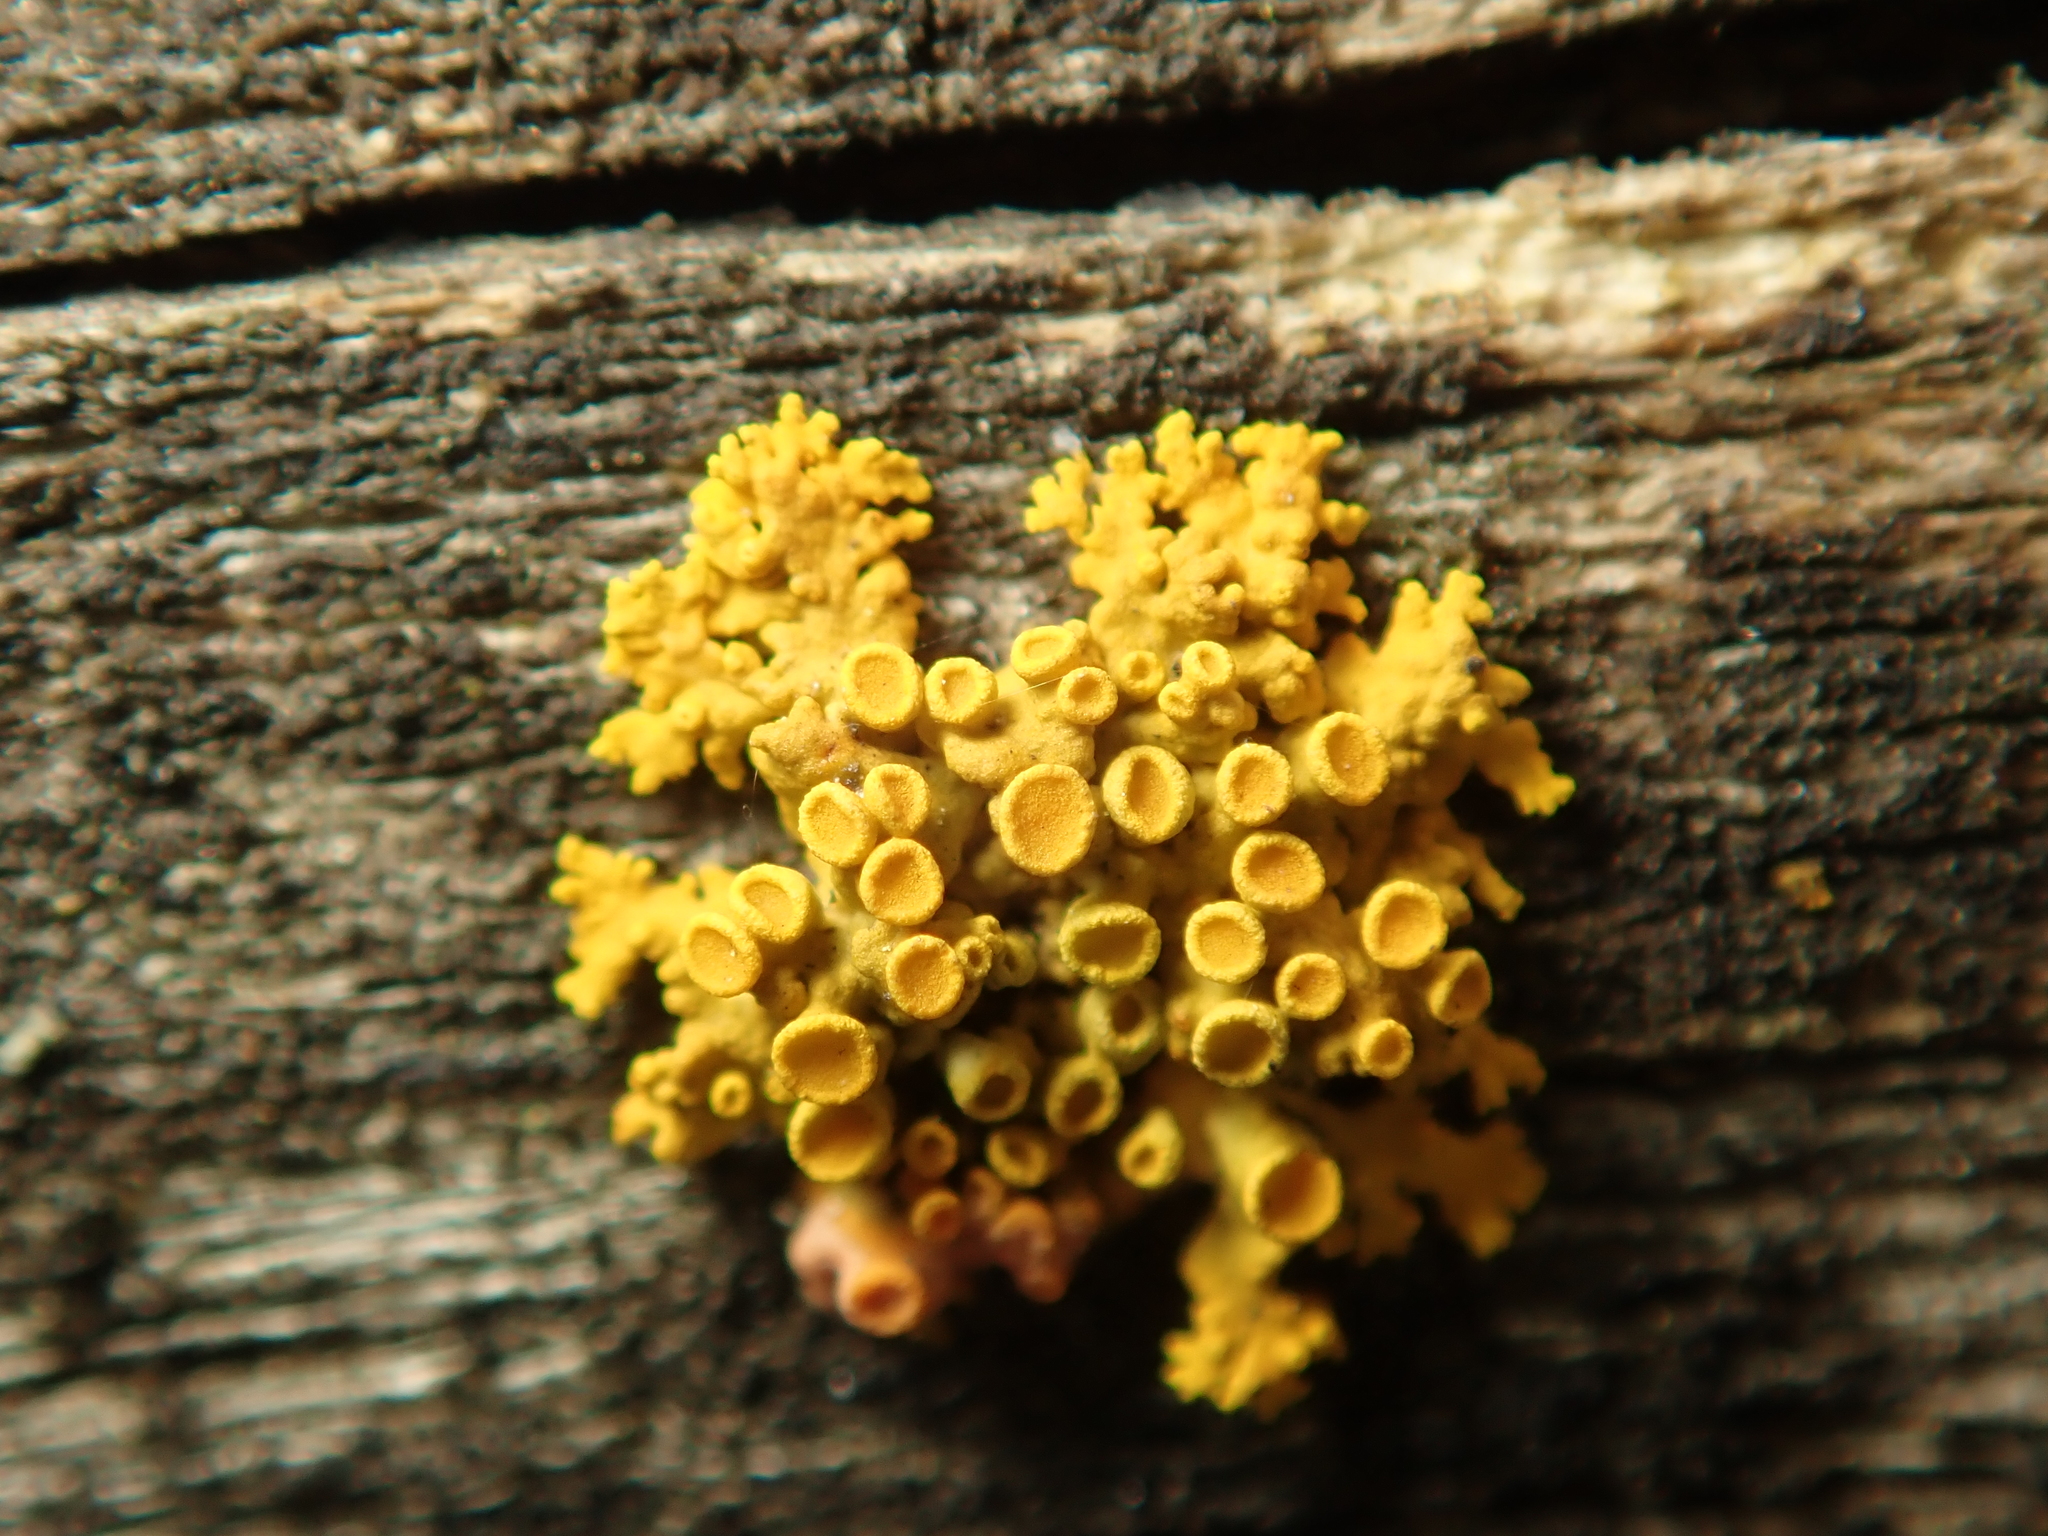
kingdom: Fungi
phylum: Ascomycota
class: Lecanoromycetes
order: Teloschistales
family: Teloschistaceae
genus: Polycauliona
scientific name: Polycauliona polycarpa
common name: Pin-cushion sunburst lichen
